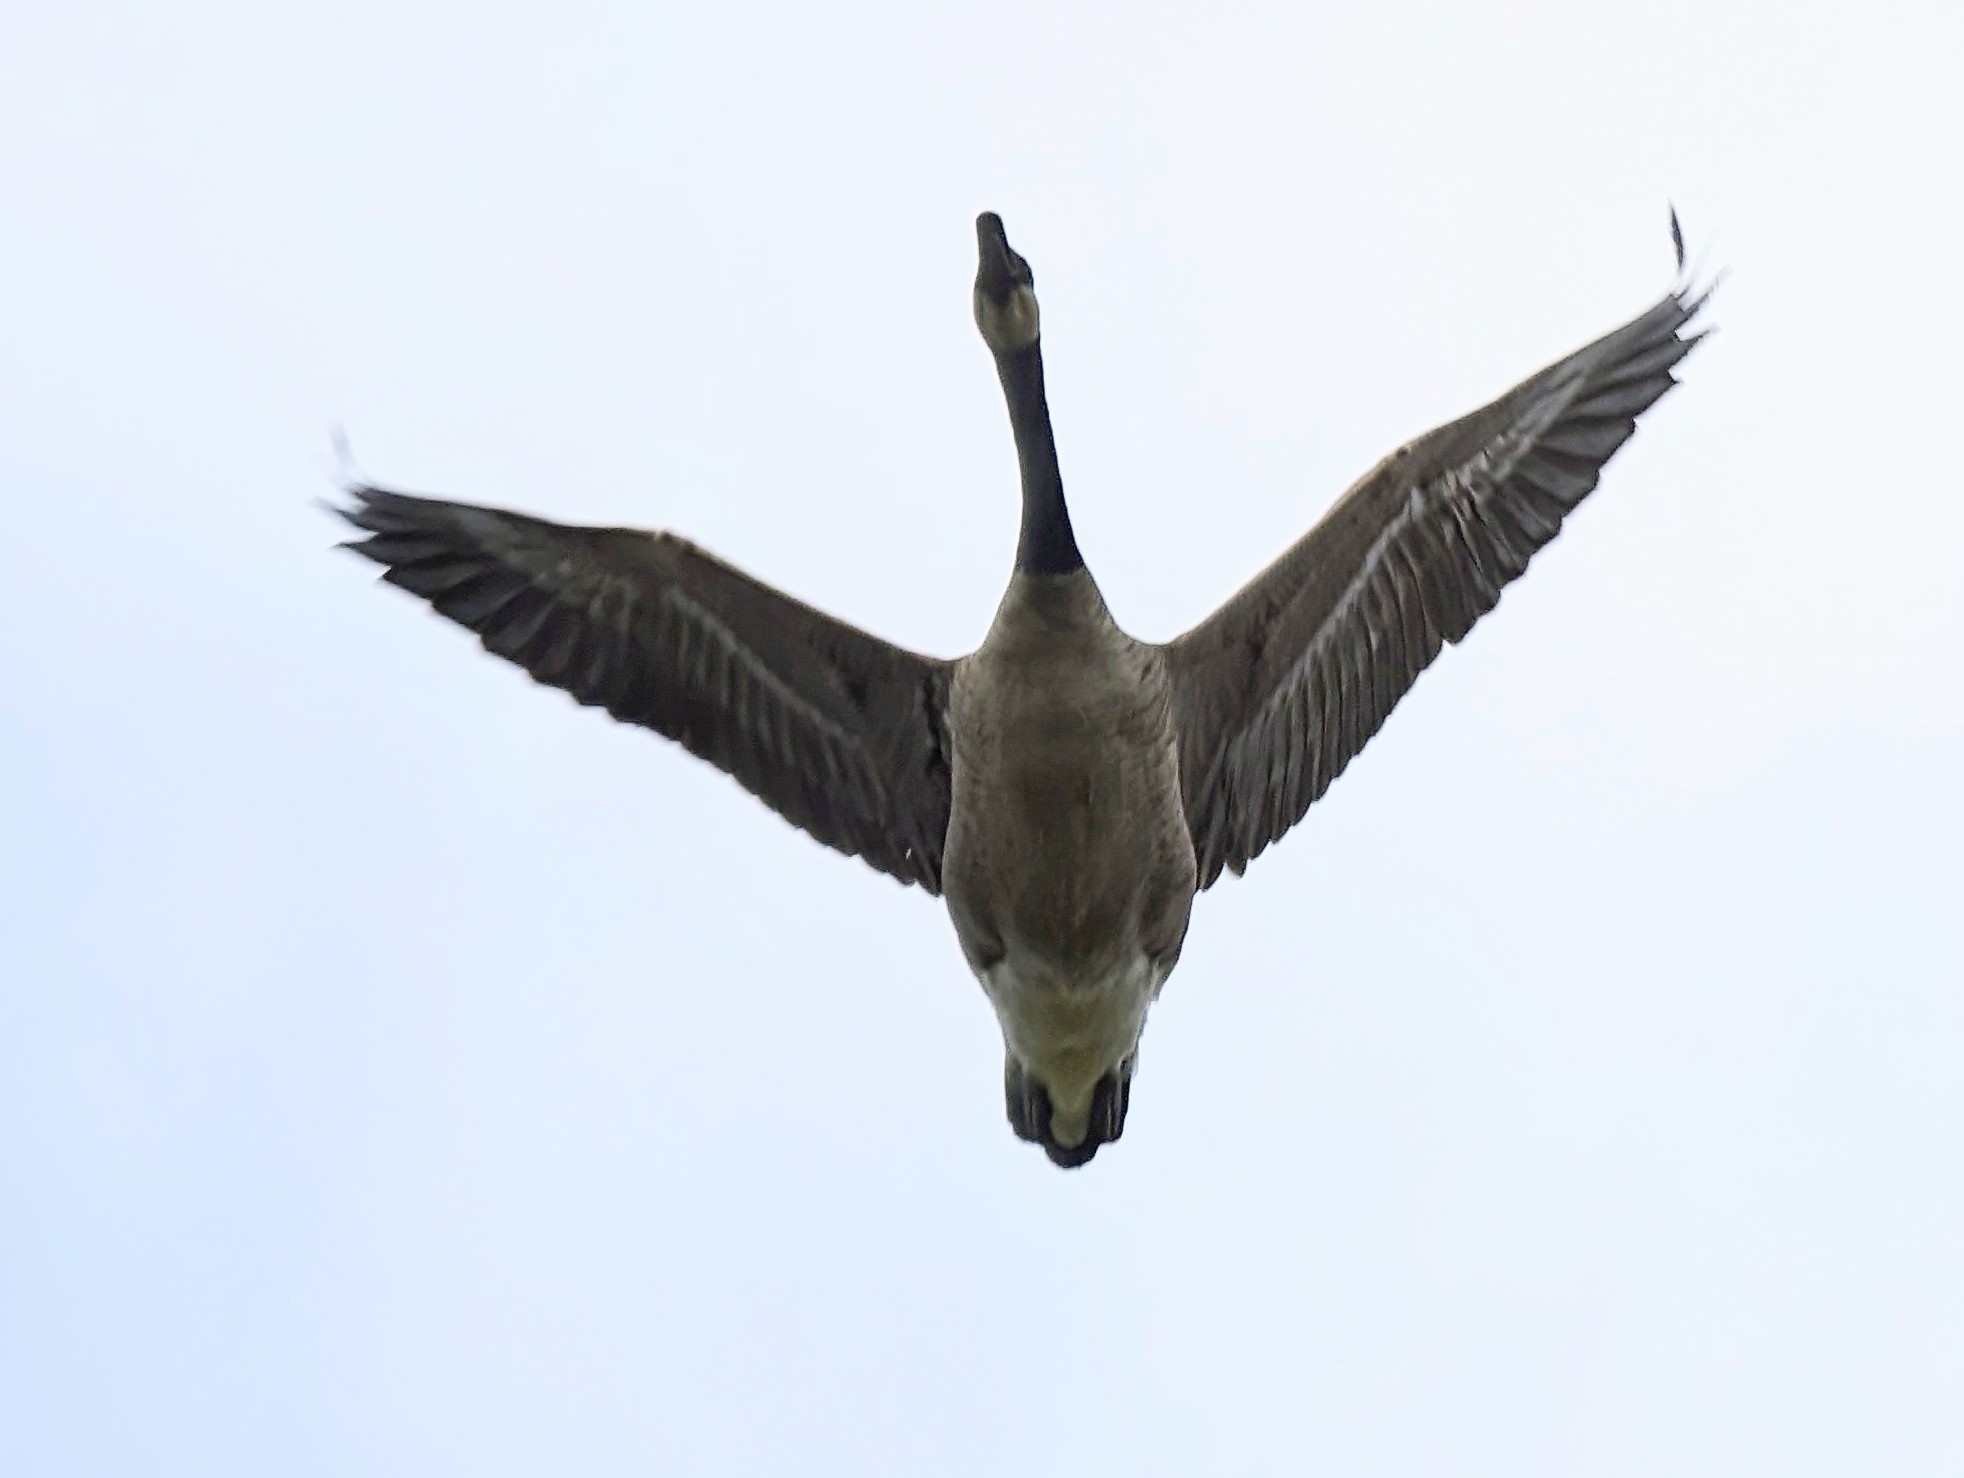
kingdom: Animalia
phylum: Chordata
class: Aves
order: Anseriformes
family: Anatidae
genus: Branta
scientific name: Branta canadensis
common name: Canada goose
